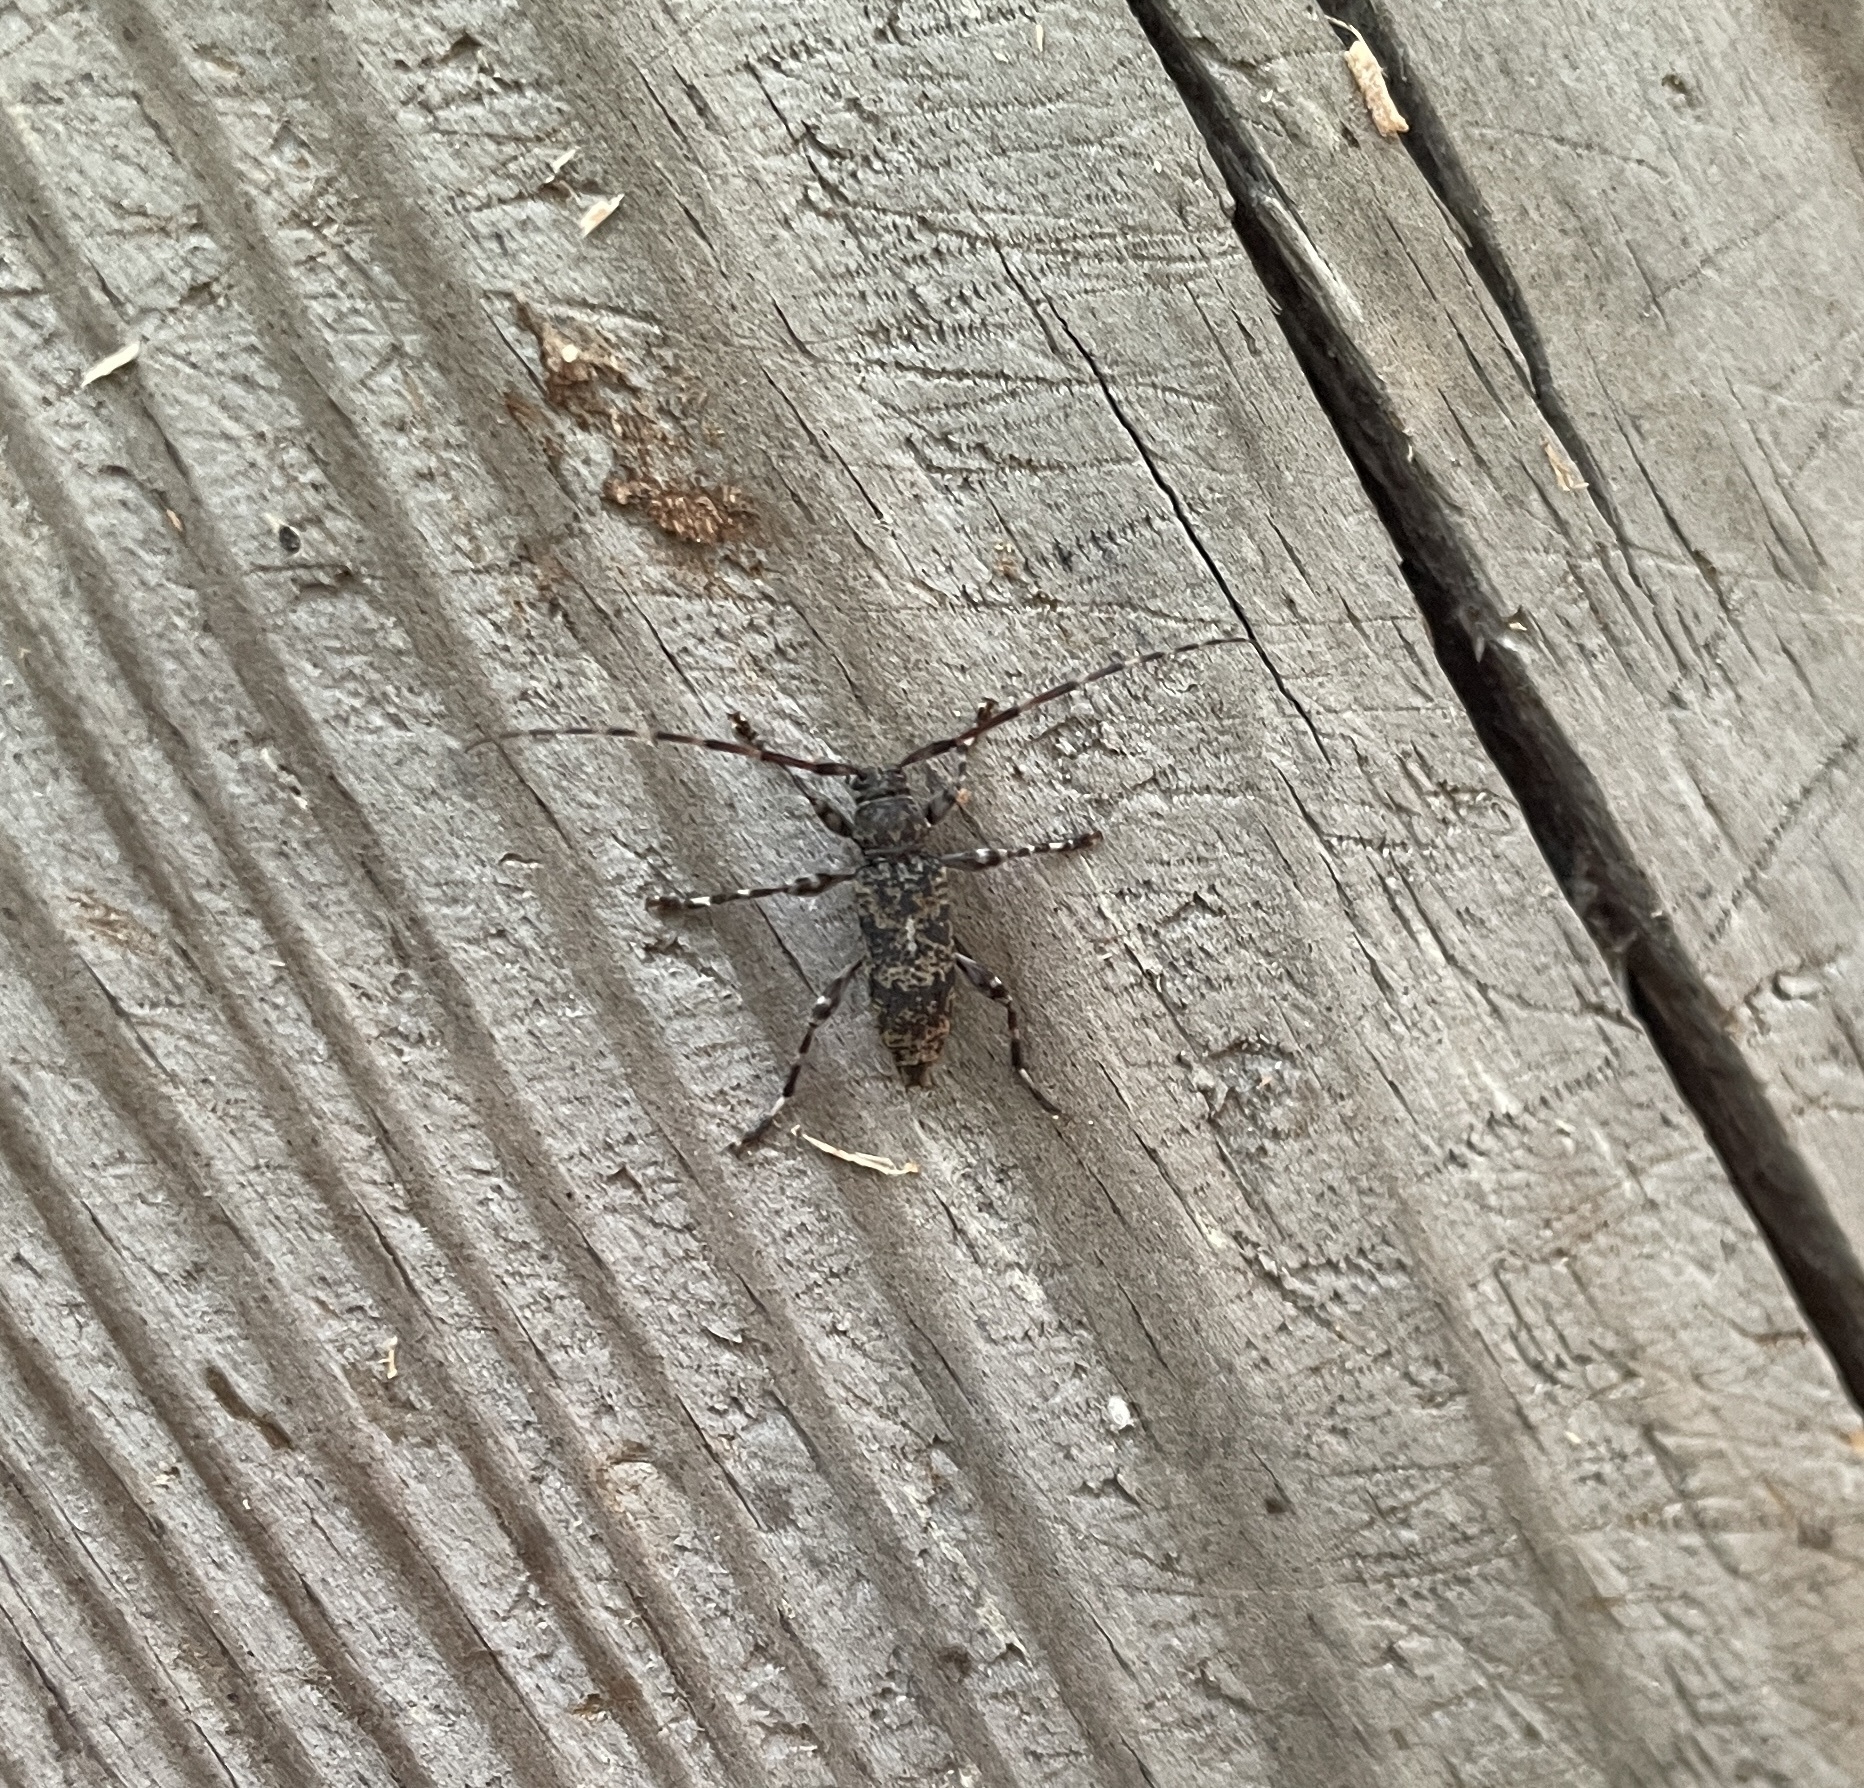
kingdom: Animalia
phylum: Arthropoda
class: Insecta
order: Coleoptera
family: Cerambycidae
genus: Graphisurus
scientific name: Graphisurus fasciatus
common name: Banded graphisurus
